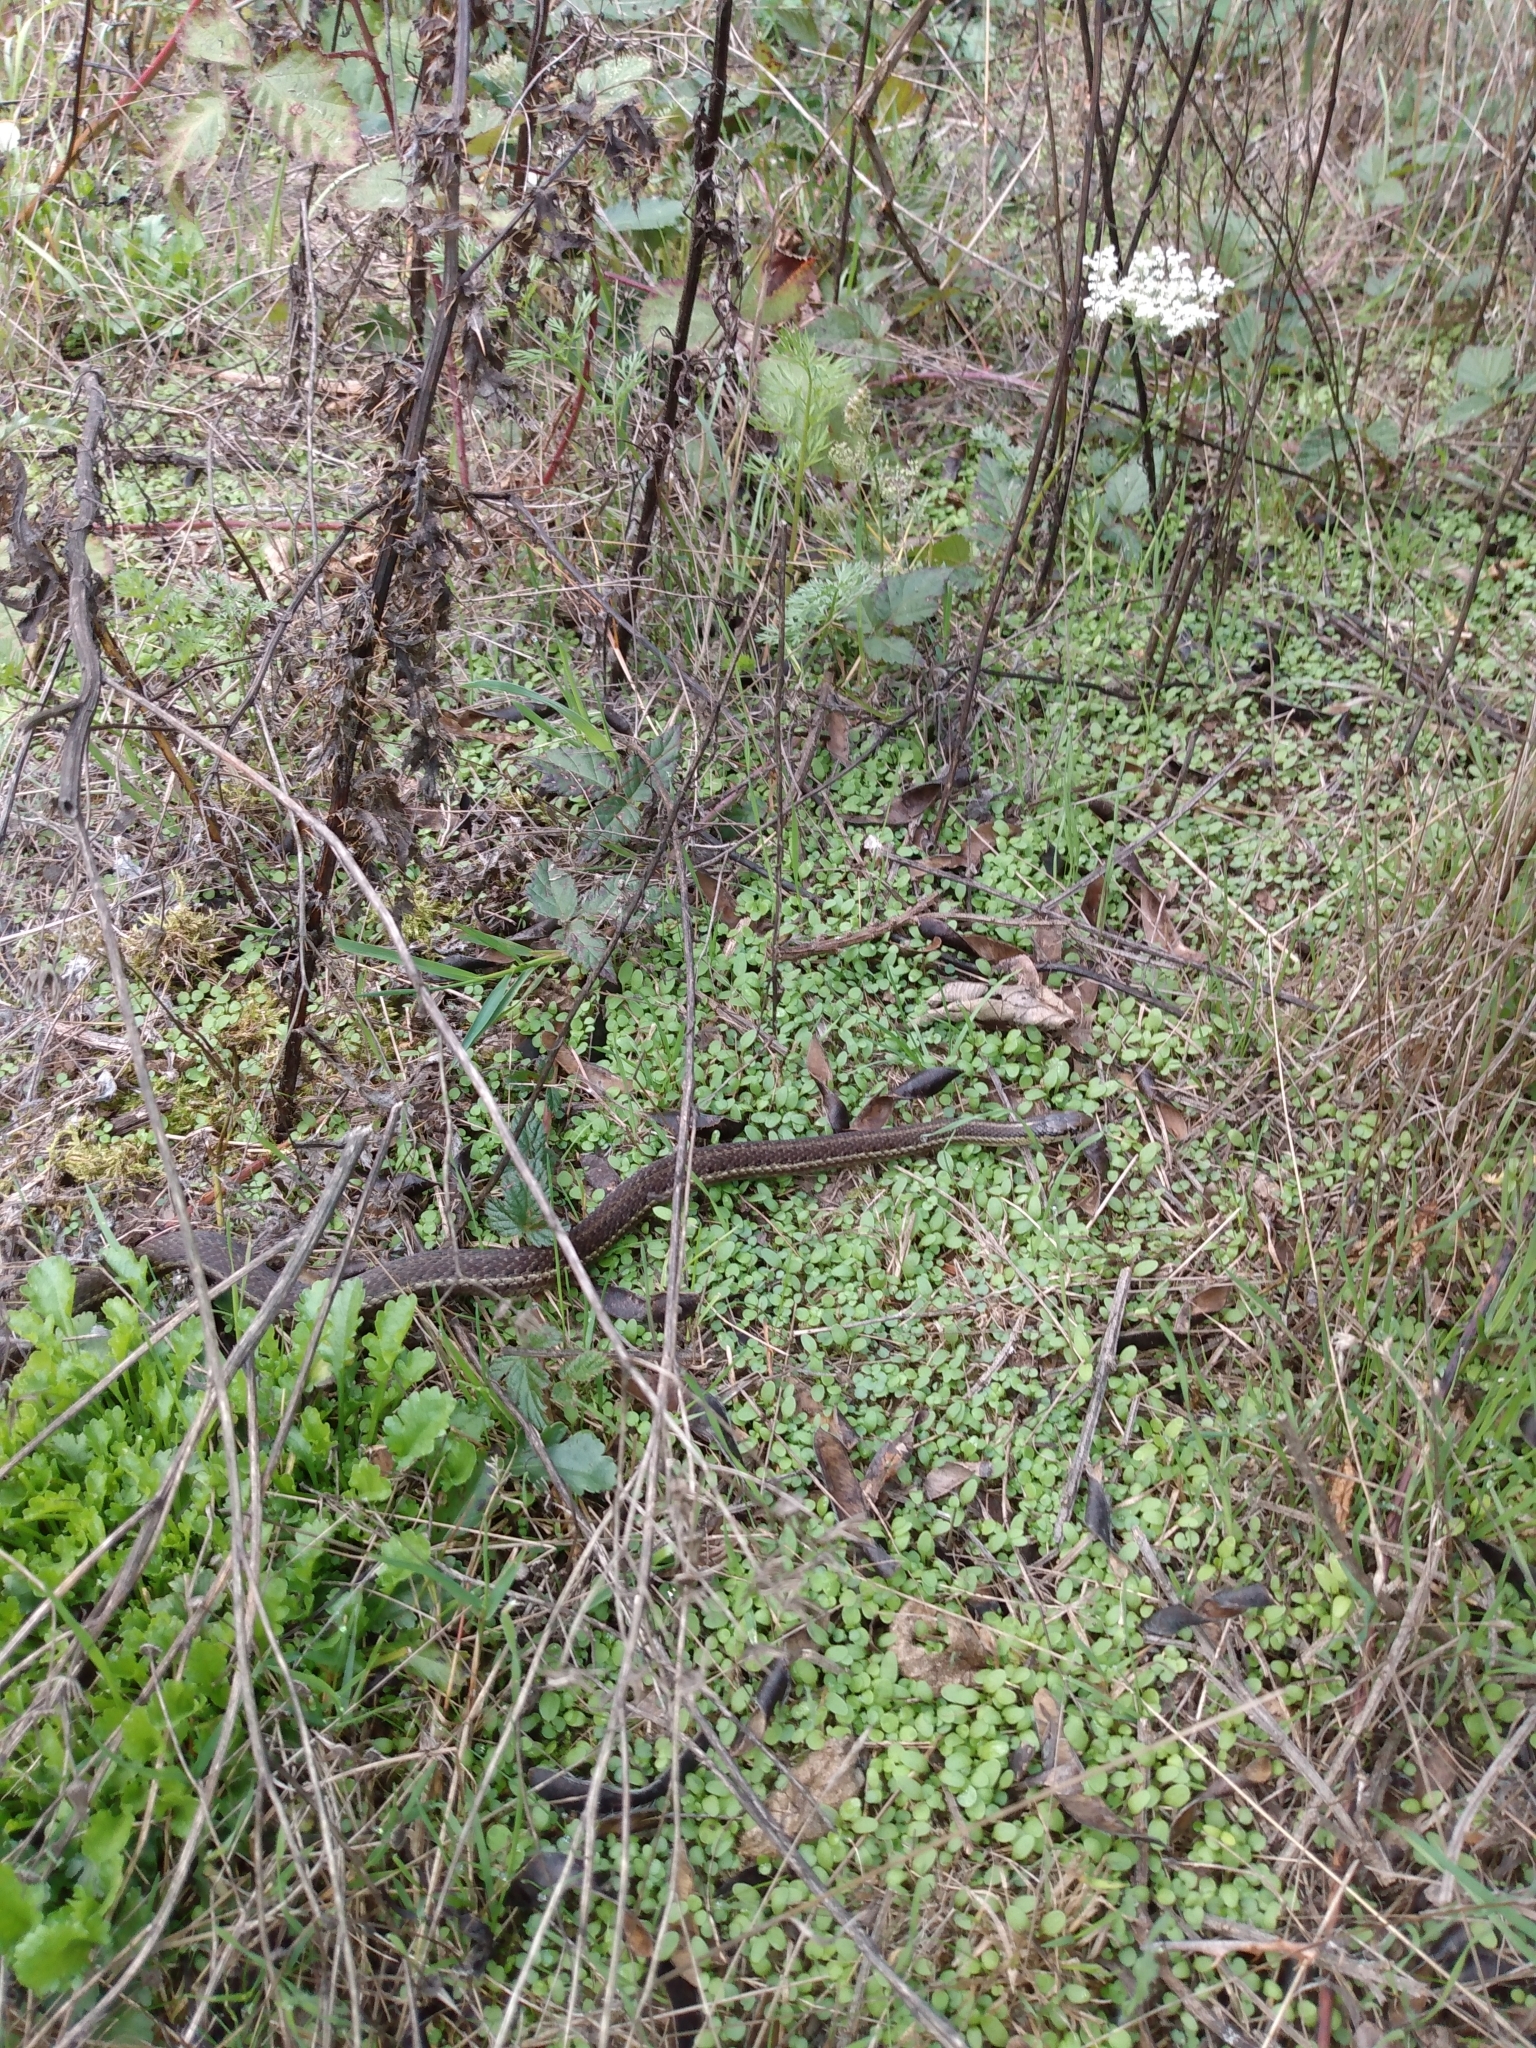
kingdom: Animalia
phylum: Chordata
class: Squamata
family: Colubridae
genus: Thamnophis
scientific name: Thamnophis ordinoides
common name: Northwestern garter snake
